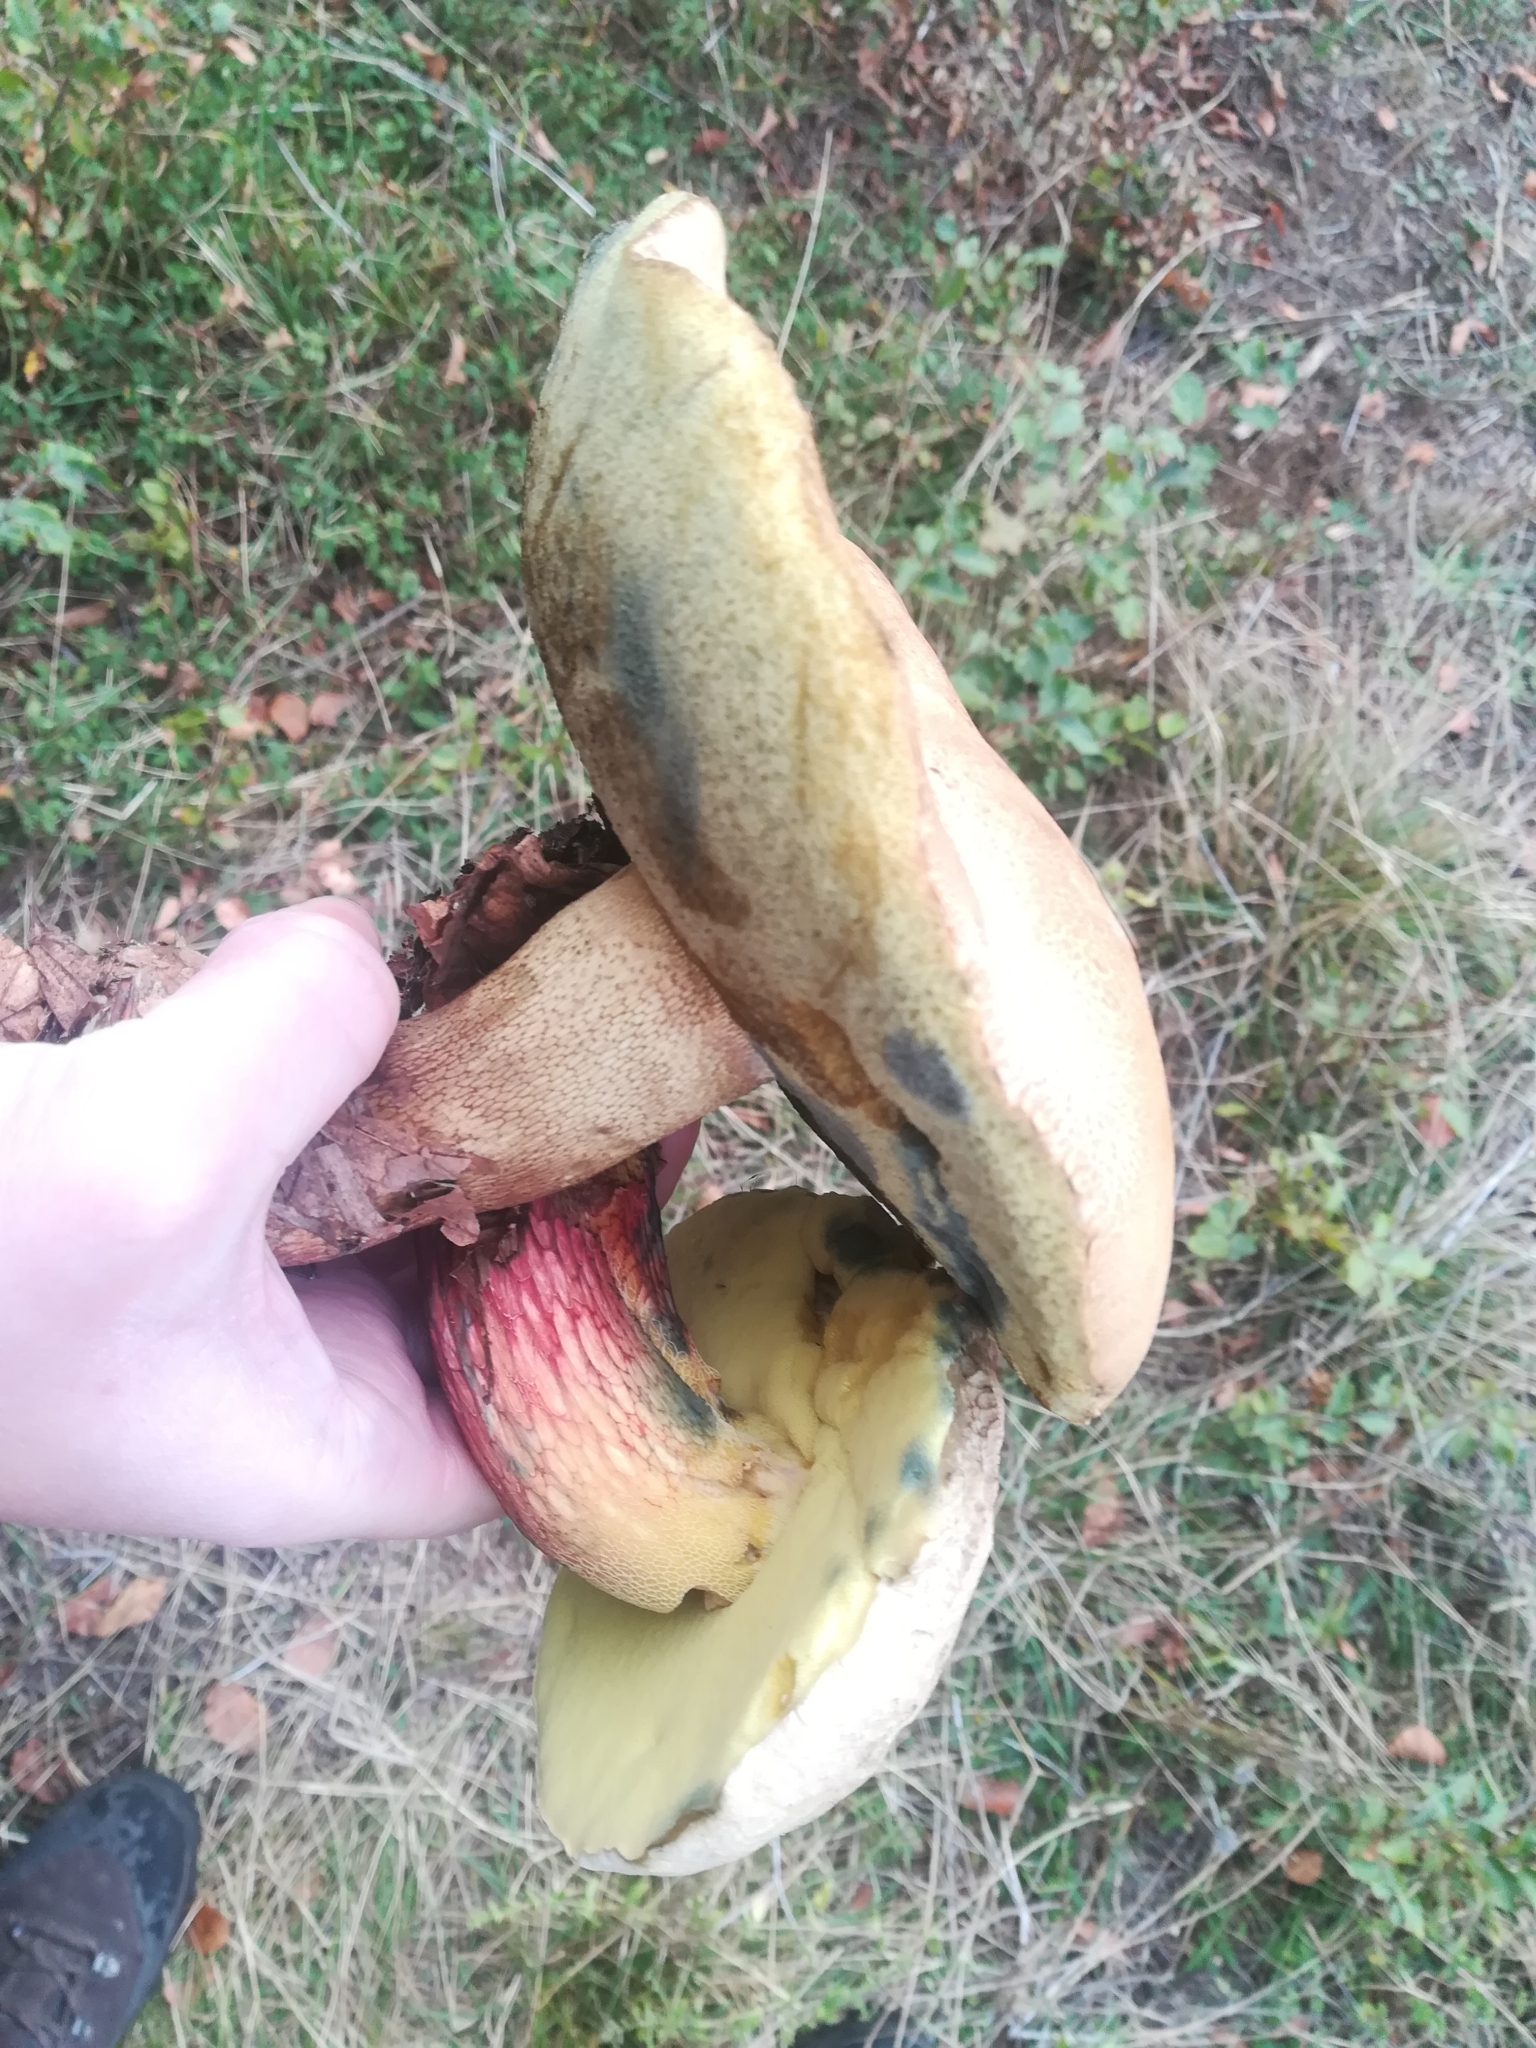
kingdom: Fungi
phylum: Basidiomycota
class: Agaricomycetes
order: Boletales
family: Boletaceae
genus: Caloboletus
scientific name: Caloboletus calopus
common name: Bitter beech bolete
